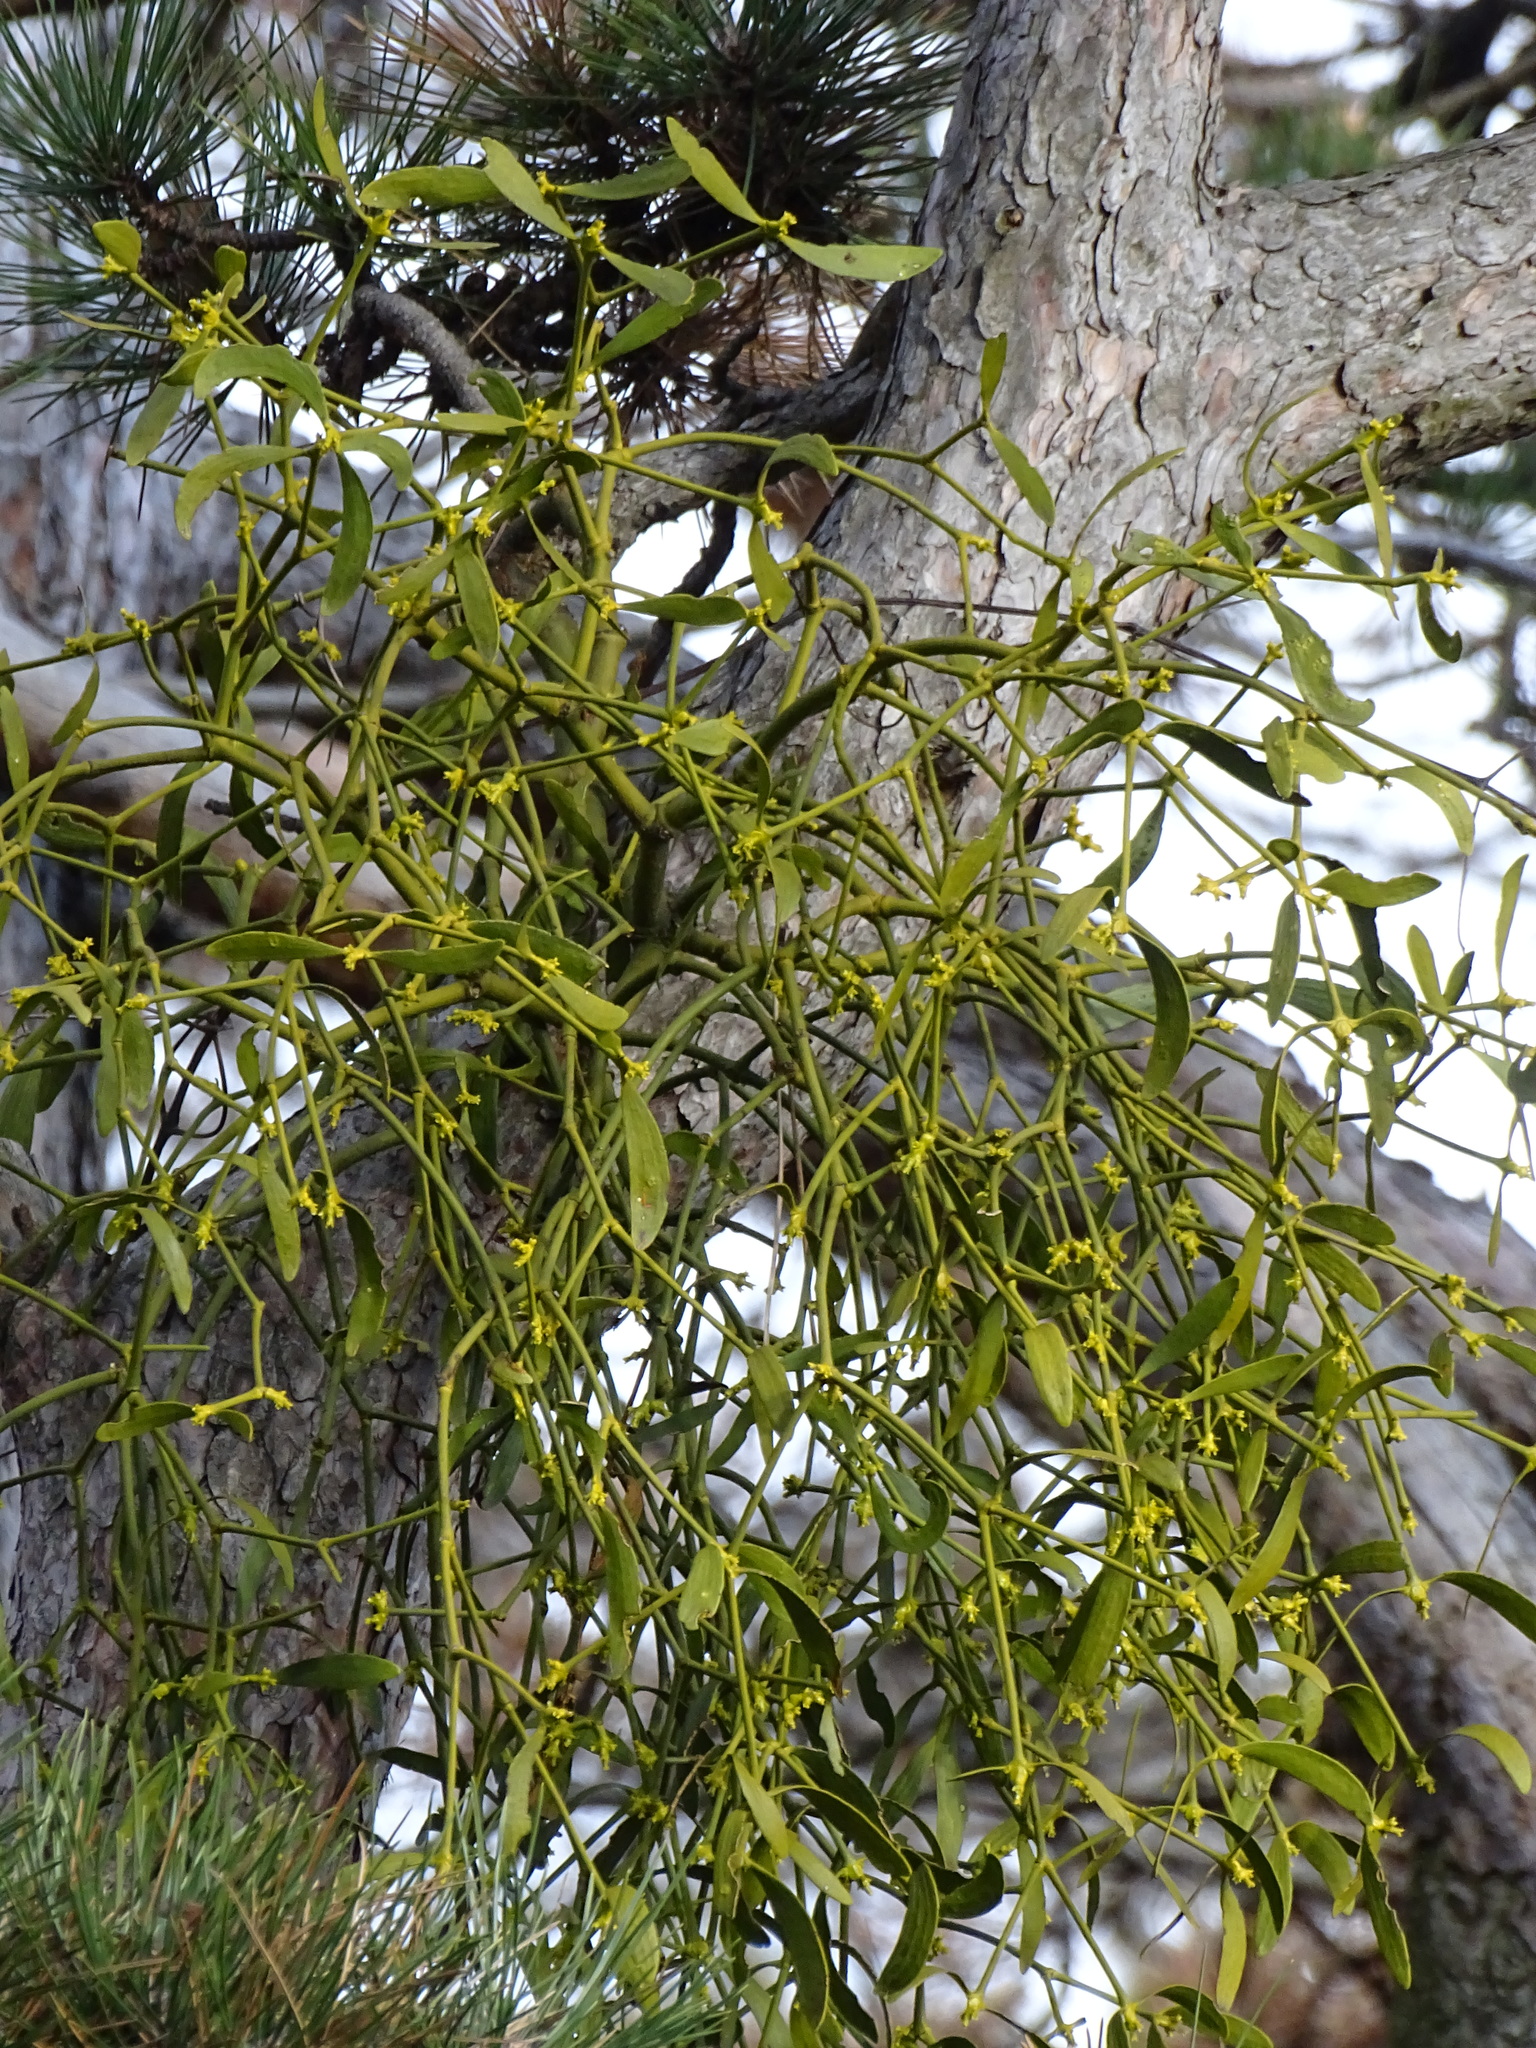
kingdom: Plantae
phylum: Tracheophyta
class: Magnoliopsida
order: Santalales
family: Viscaceae
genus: Viscum
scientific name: Viscum laxum
